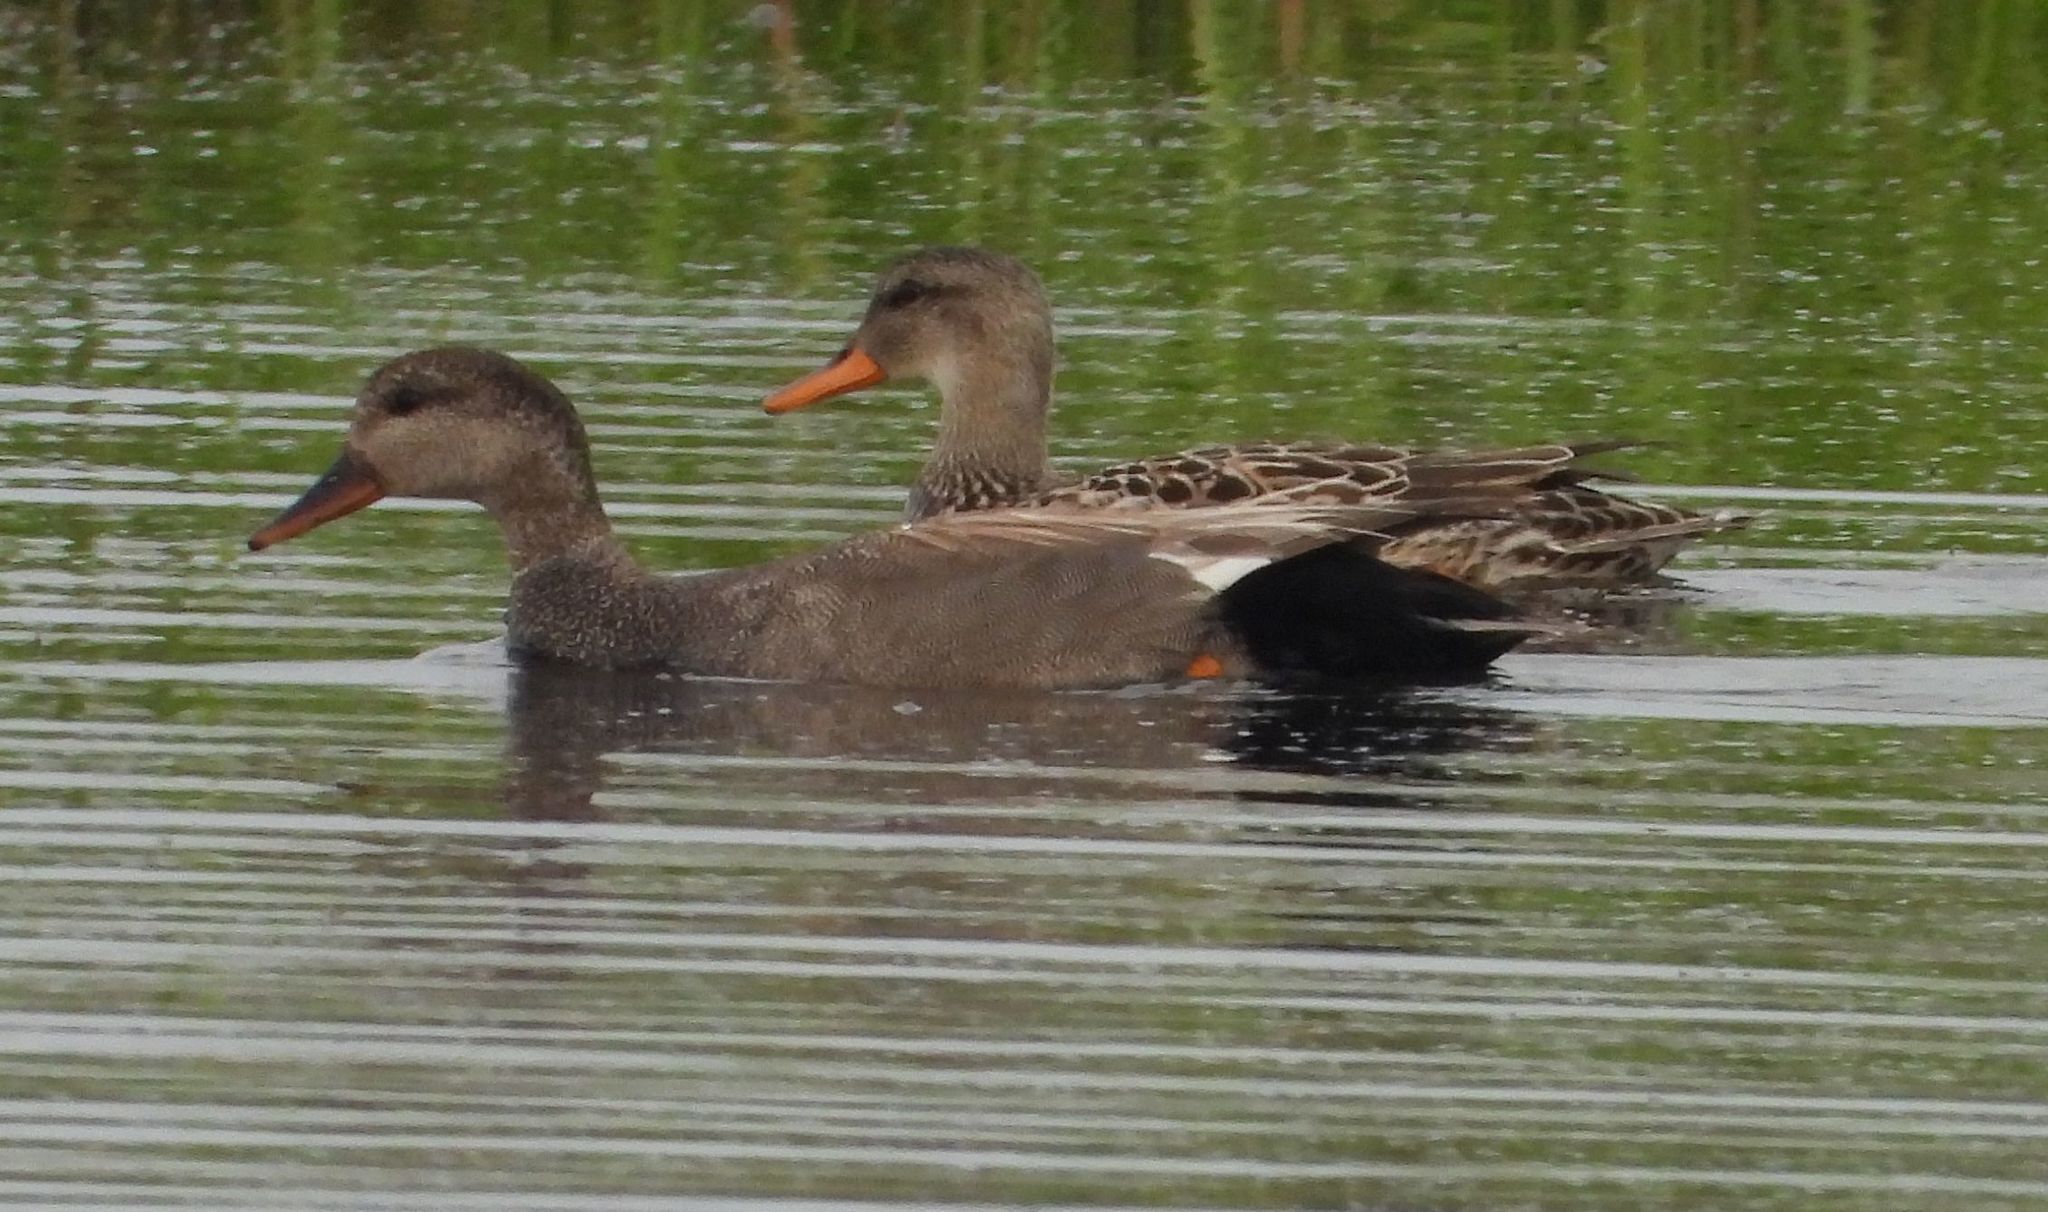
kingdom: Animalia
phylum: Chordata
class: Aves
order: Anseriformes
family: Anatidae
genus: Mareca
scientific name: Mareca strepera
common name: Gadwall
